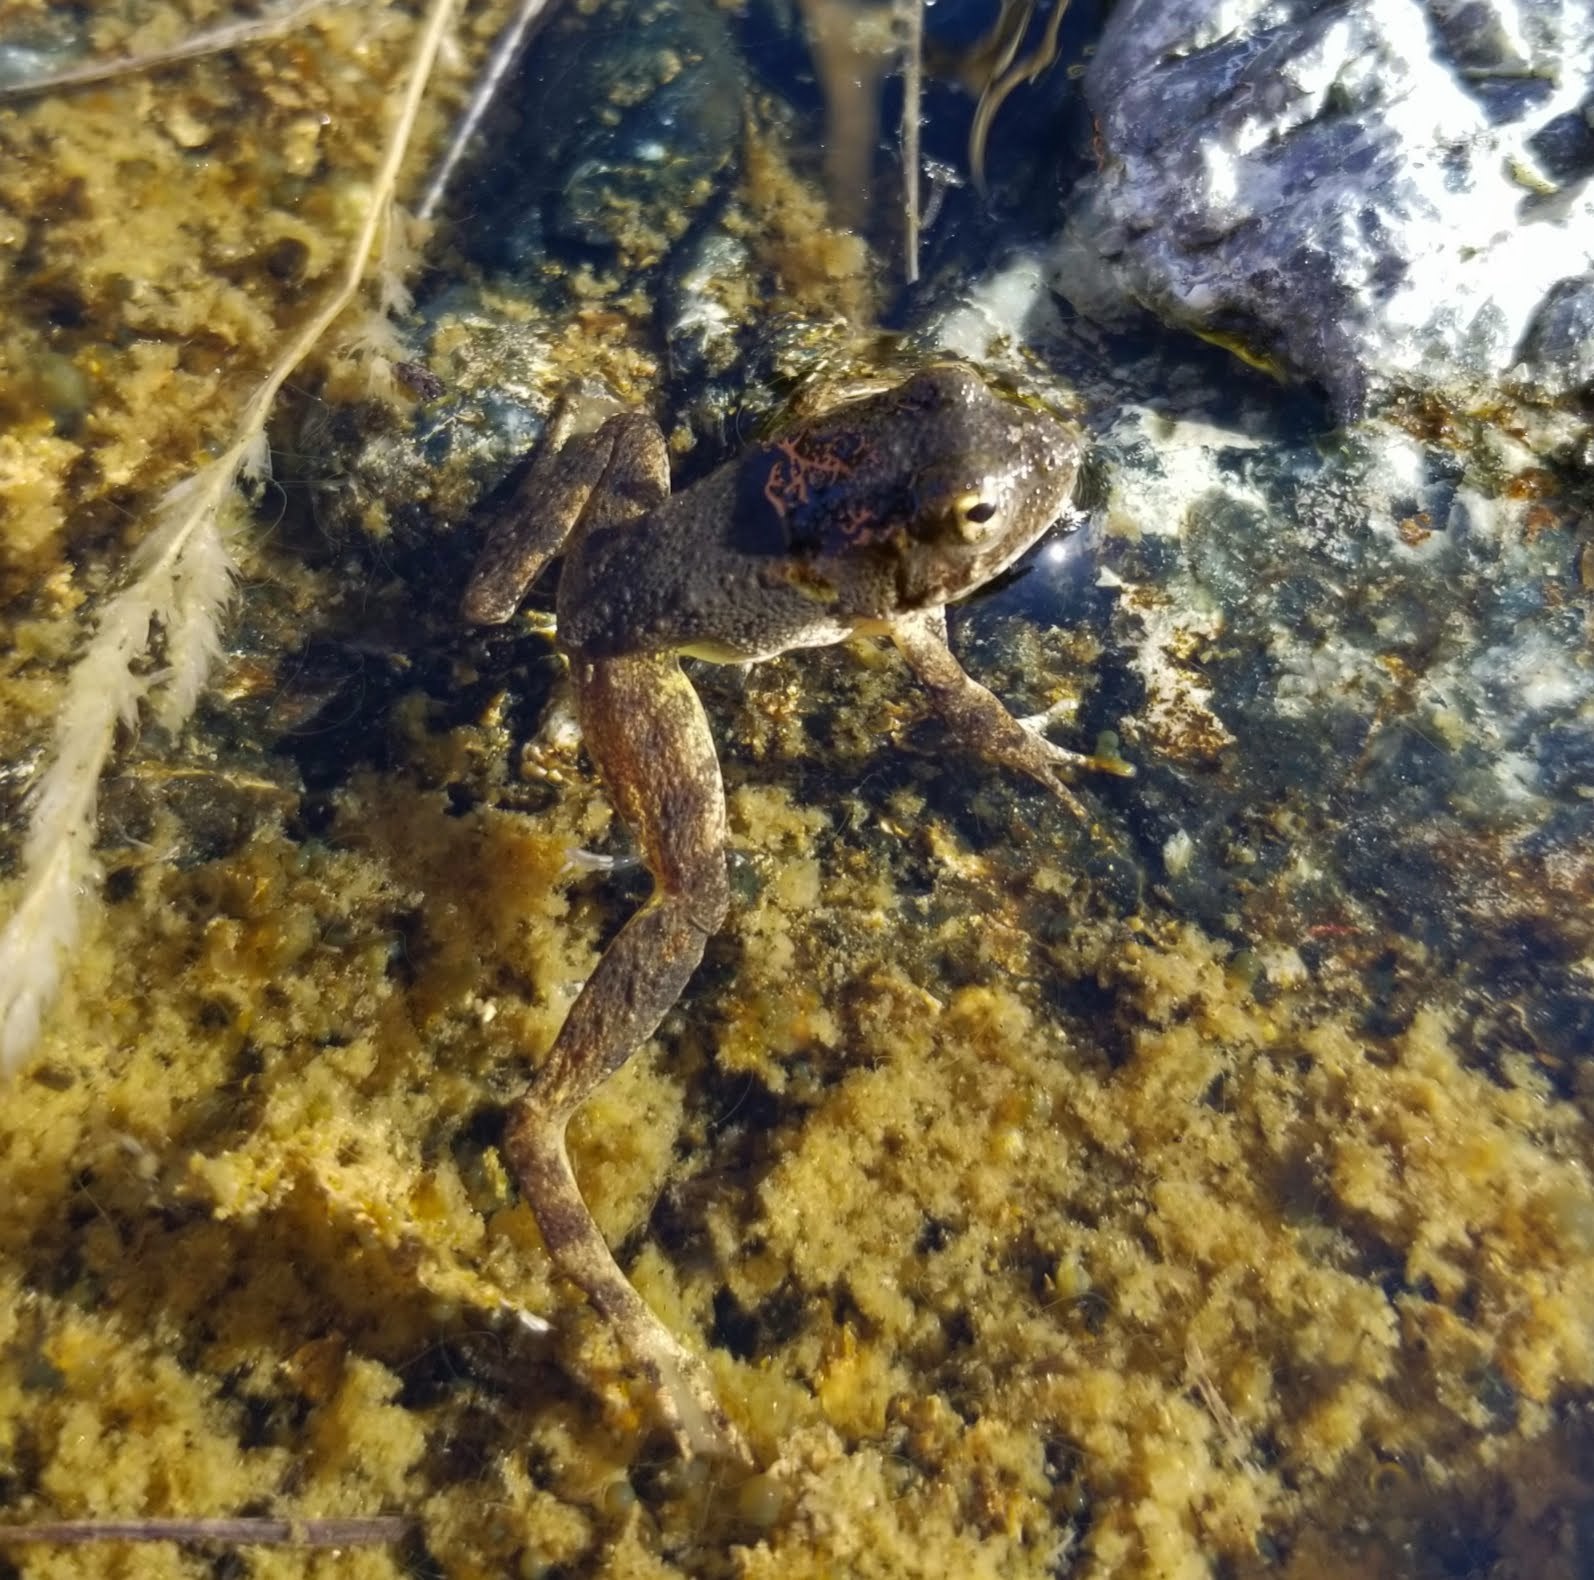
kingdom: Animalia
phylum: Chordata
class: Amphibia
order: Anura
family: Ranidae
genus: Rana
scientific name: Rana boylii
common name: Foothill yellow-legged frog
